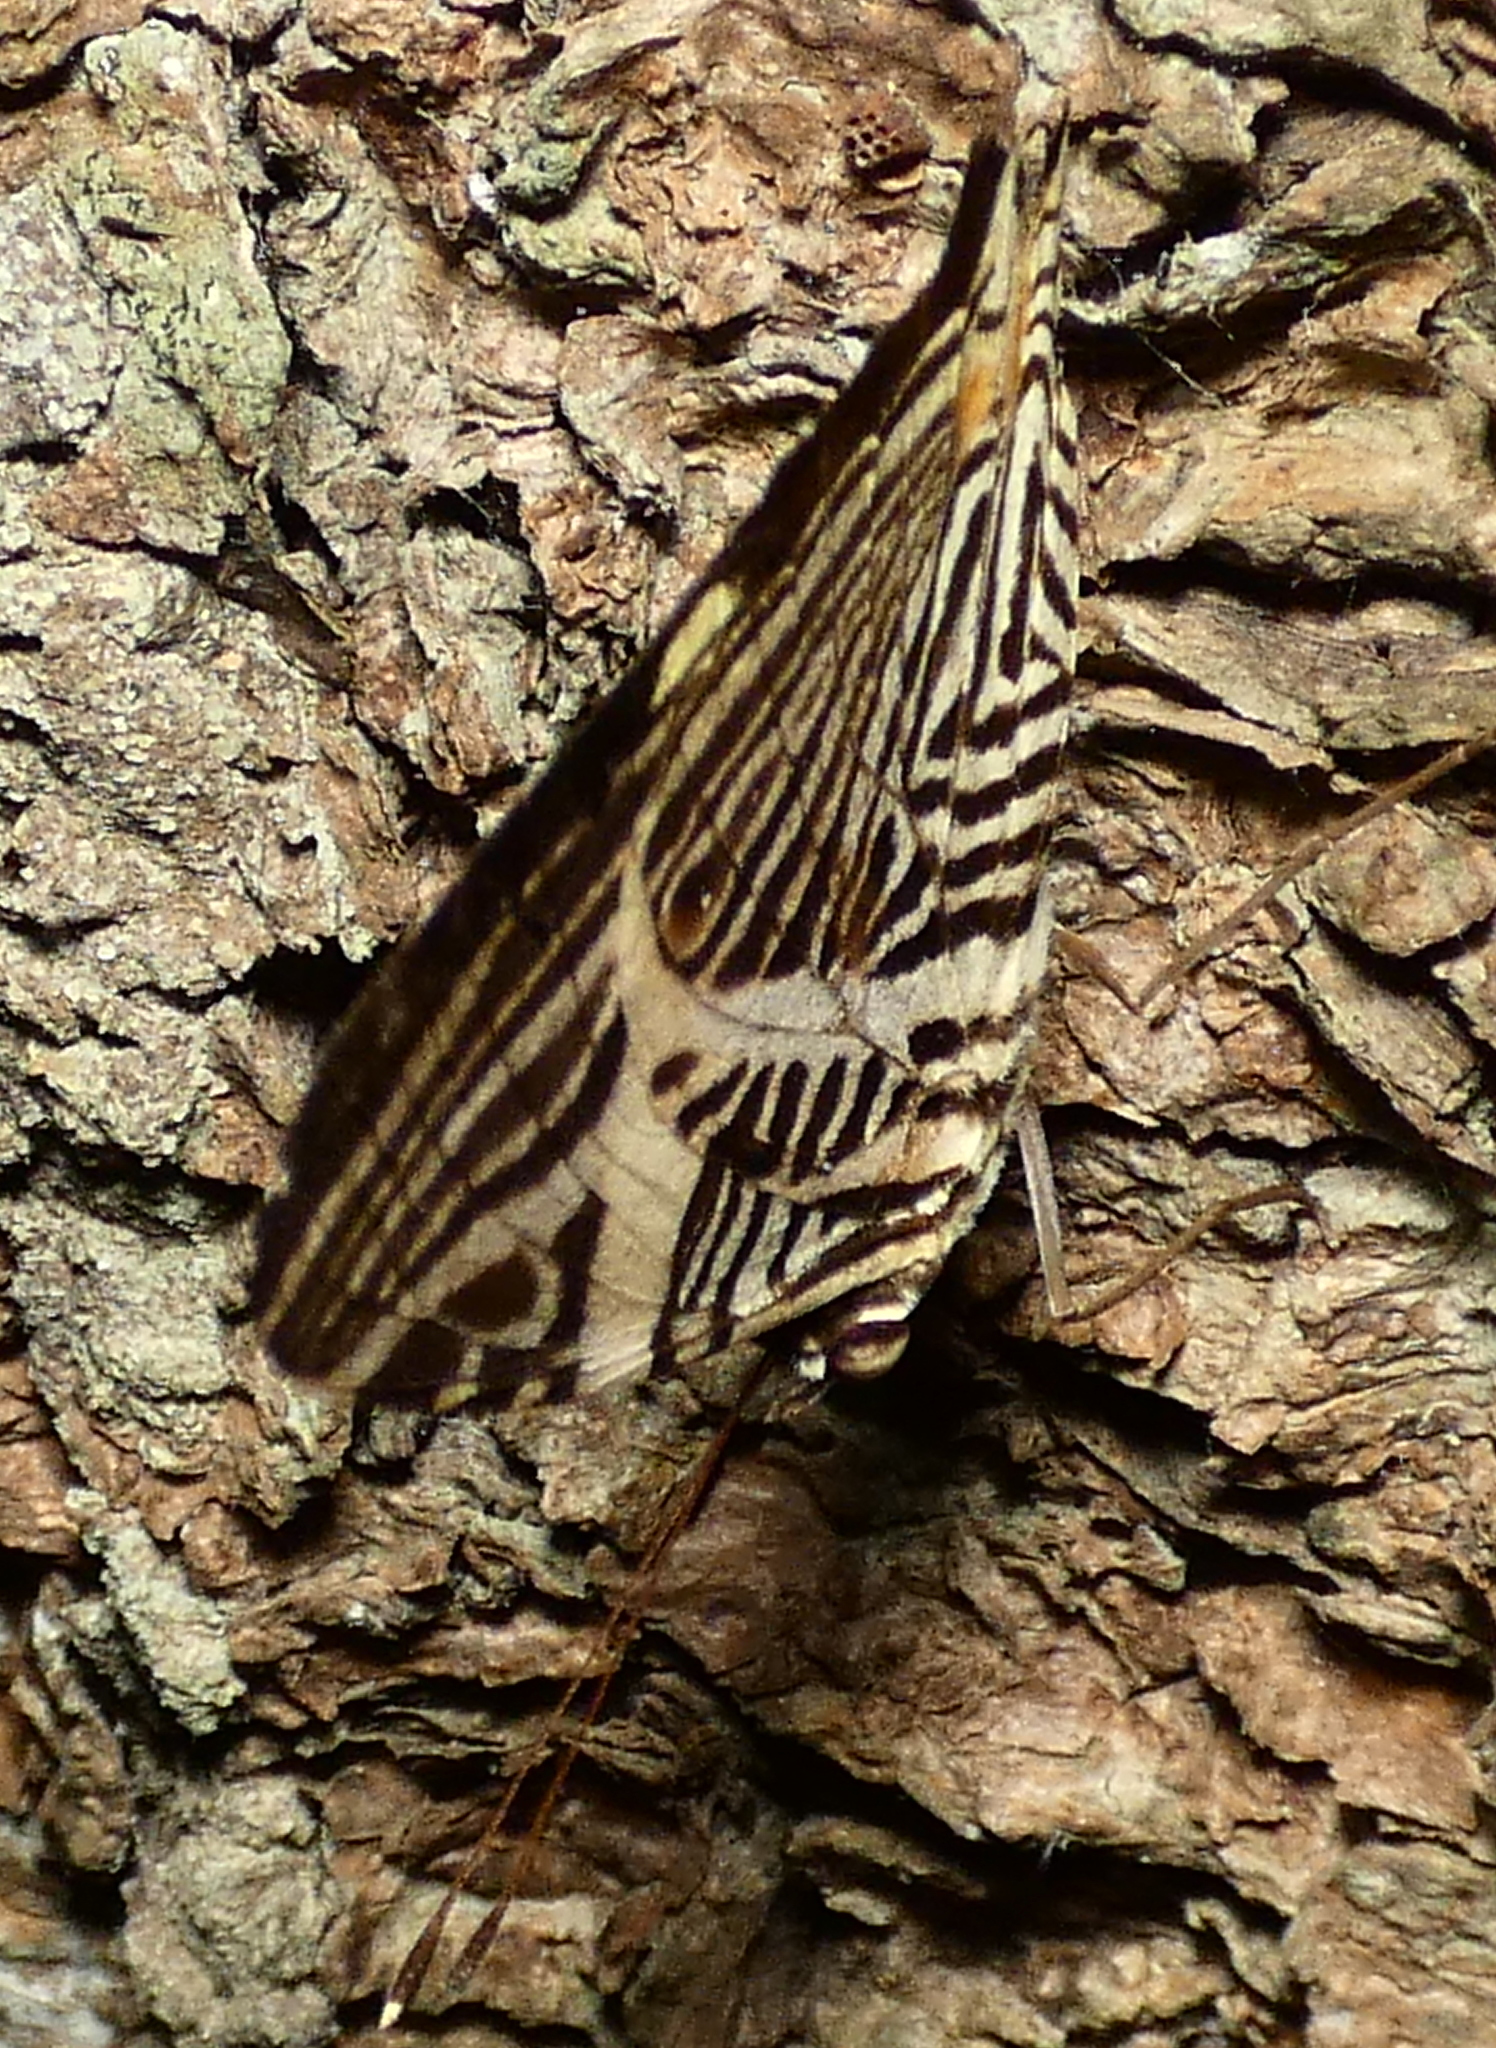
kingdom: Animalia
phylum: Arthropoda
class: Insecta
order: Lepidoptera
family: Nymphalidae
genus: Colobura
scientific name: Colobura dirce
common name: Dirce beauty
